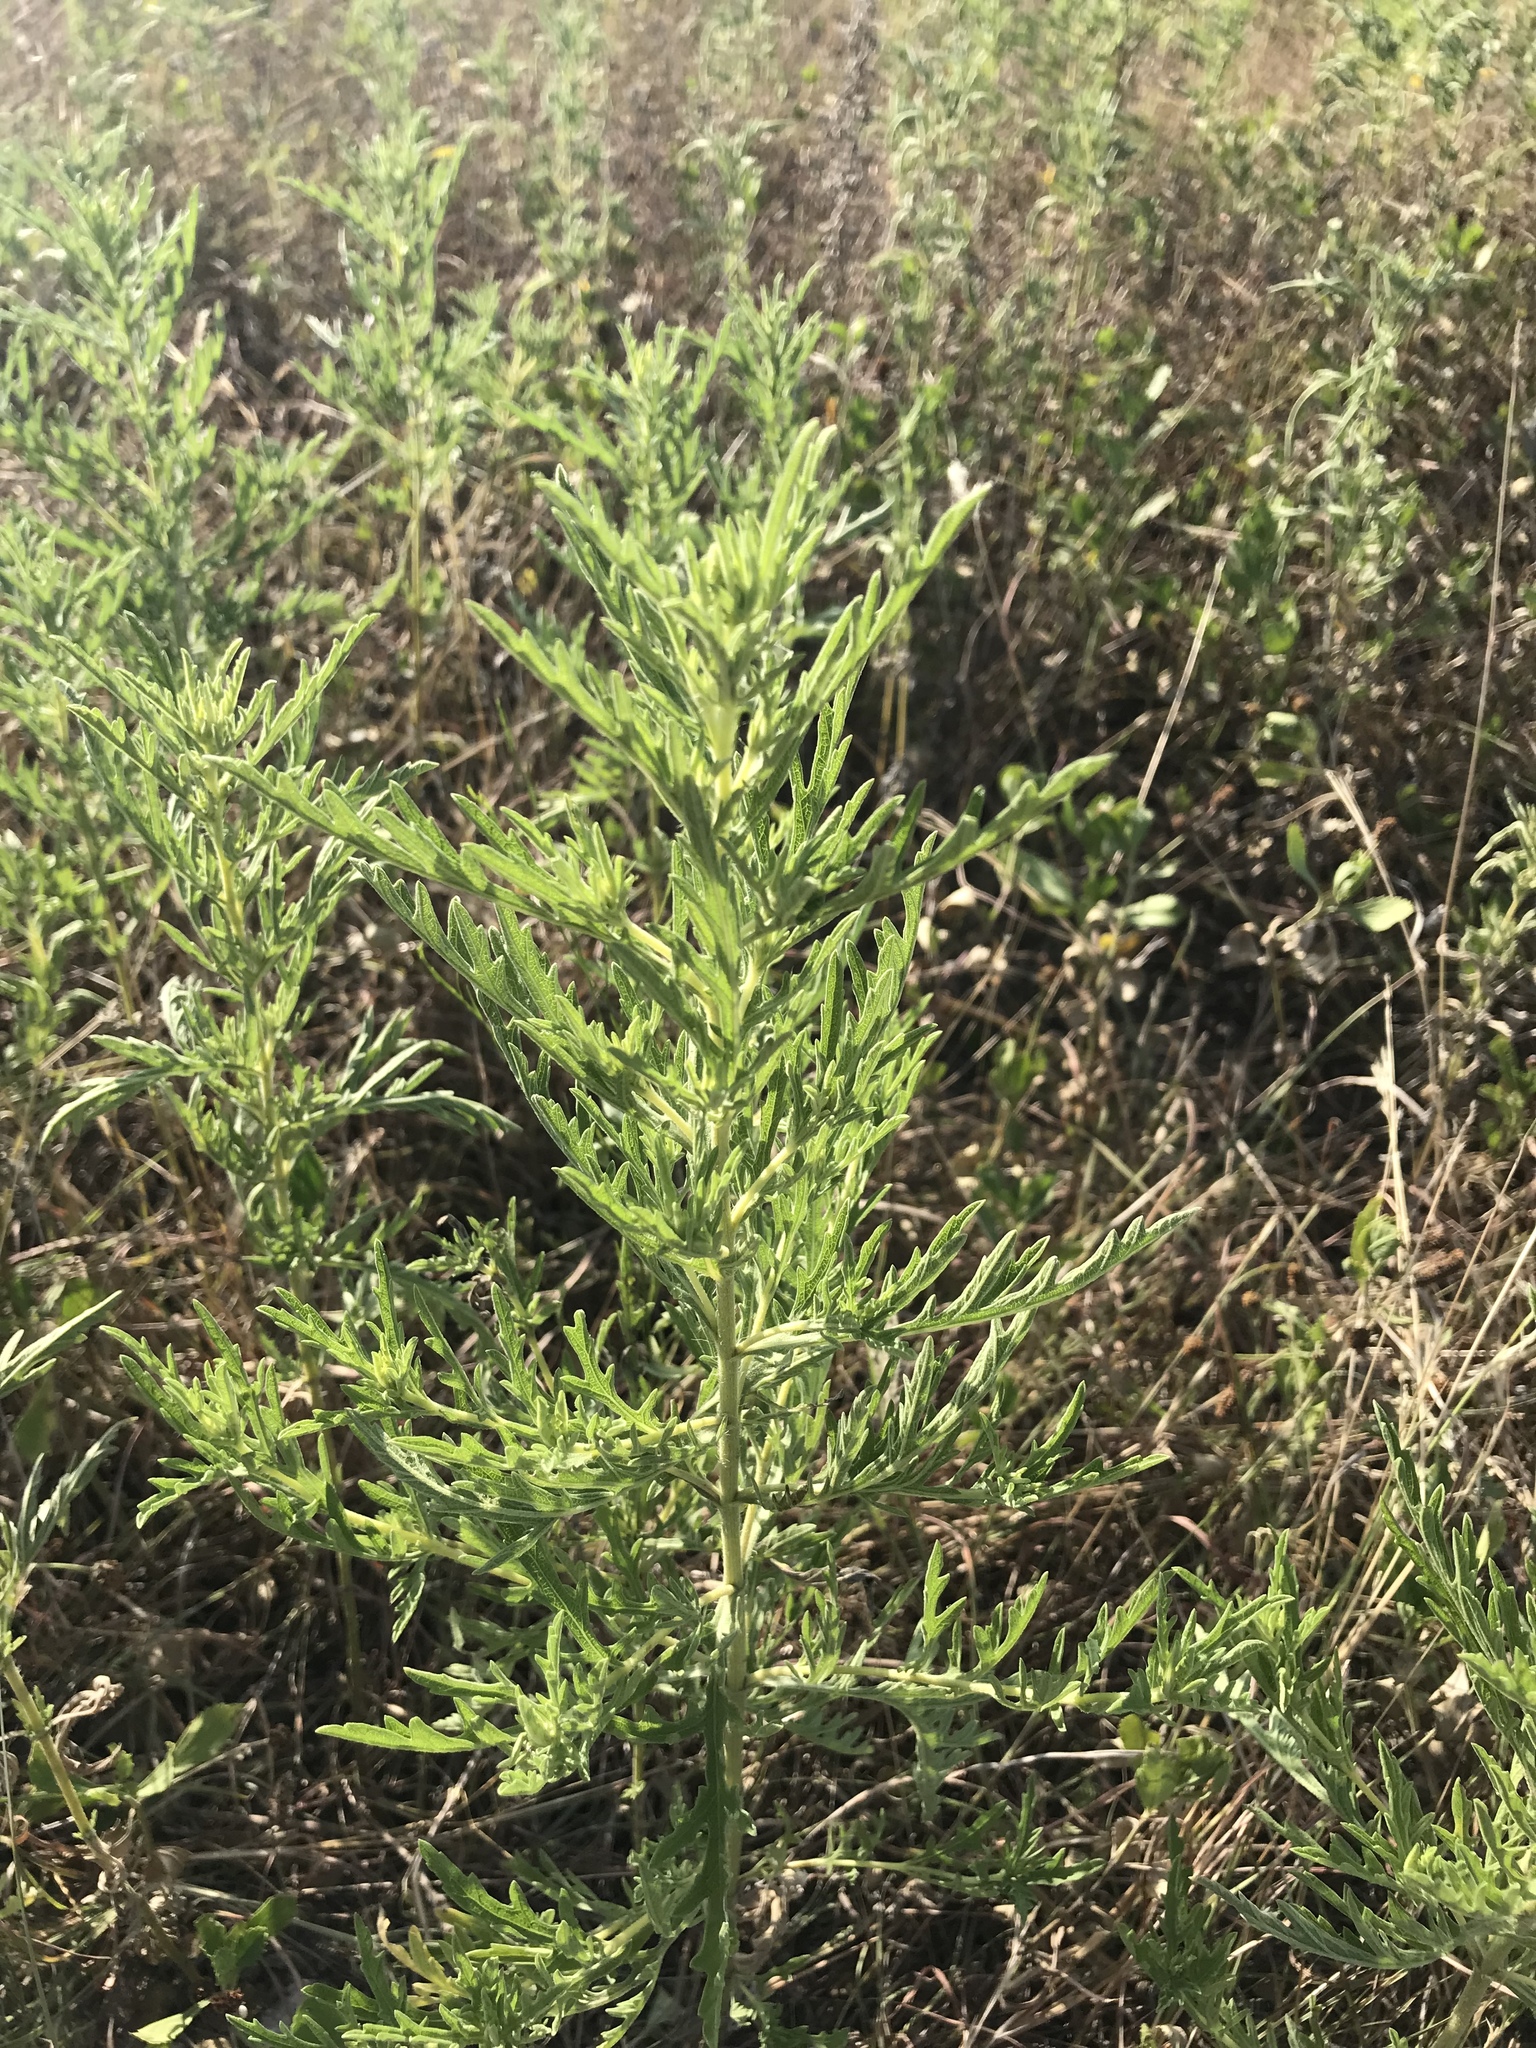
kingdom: Plantae
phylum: Tracheophyta
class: Magnoliopsida
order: Asterales
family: Asteraceae
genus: Ambrosia
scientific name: Ambrosia psilostachya
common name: Perennial ragweed
